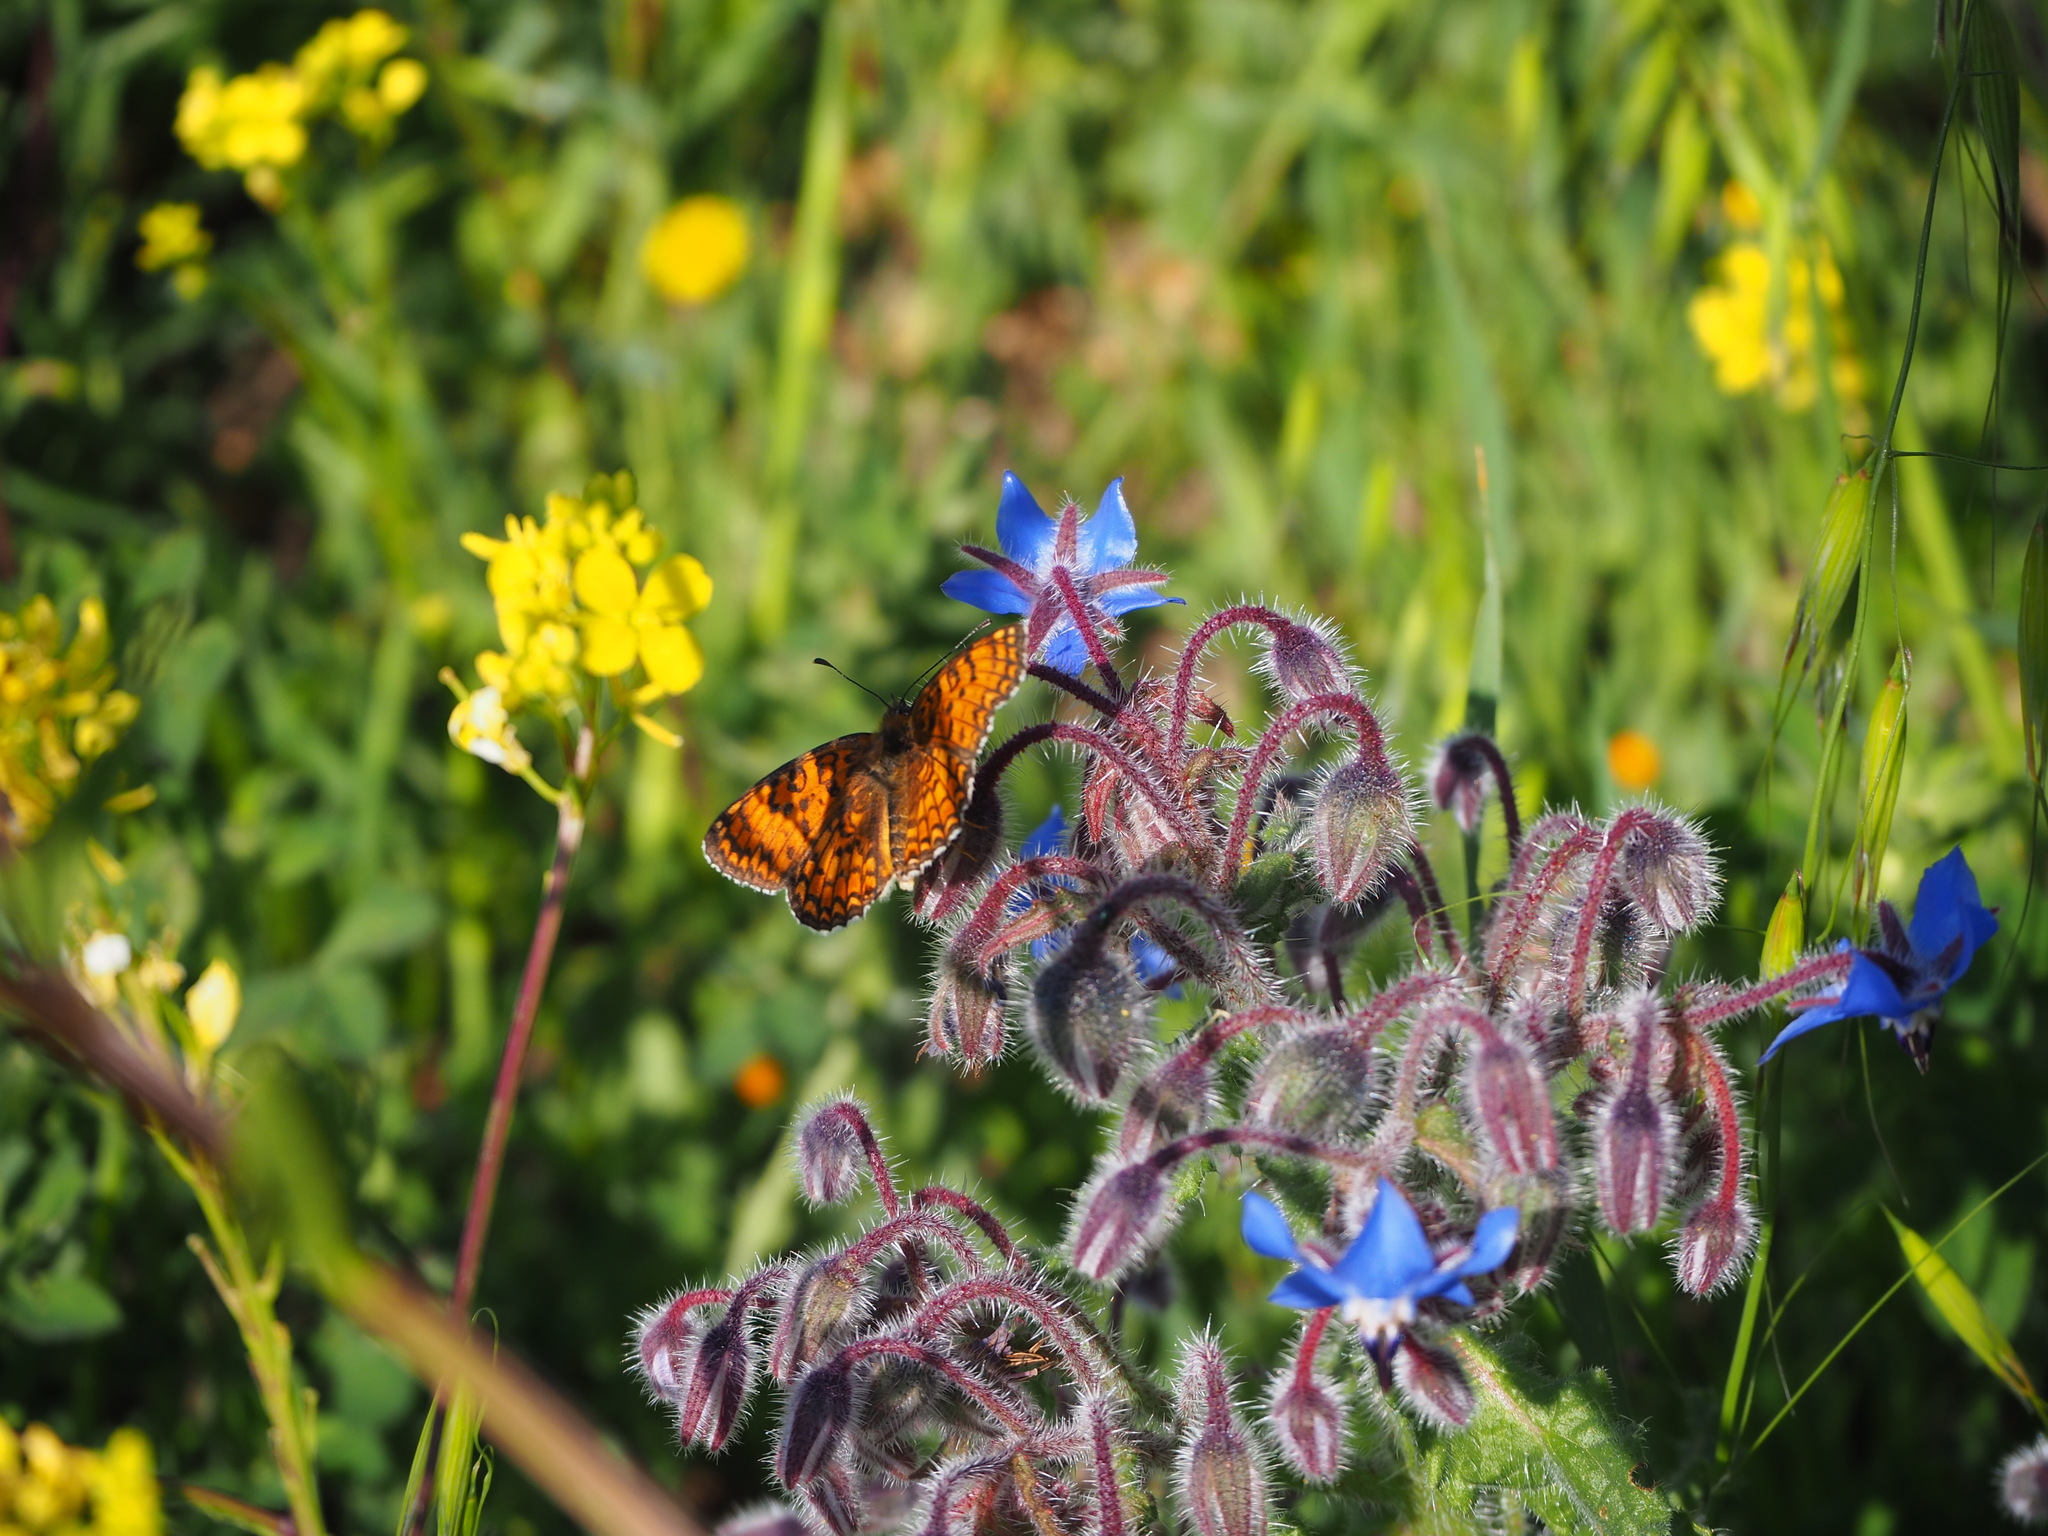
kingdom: Animalia
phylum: Arthropoda
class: Insecta
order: Lepidoptera
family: Nymphalidae
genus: Melitaea
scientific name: Melitaea phoebe
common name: Knapweed fritillary
